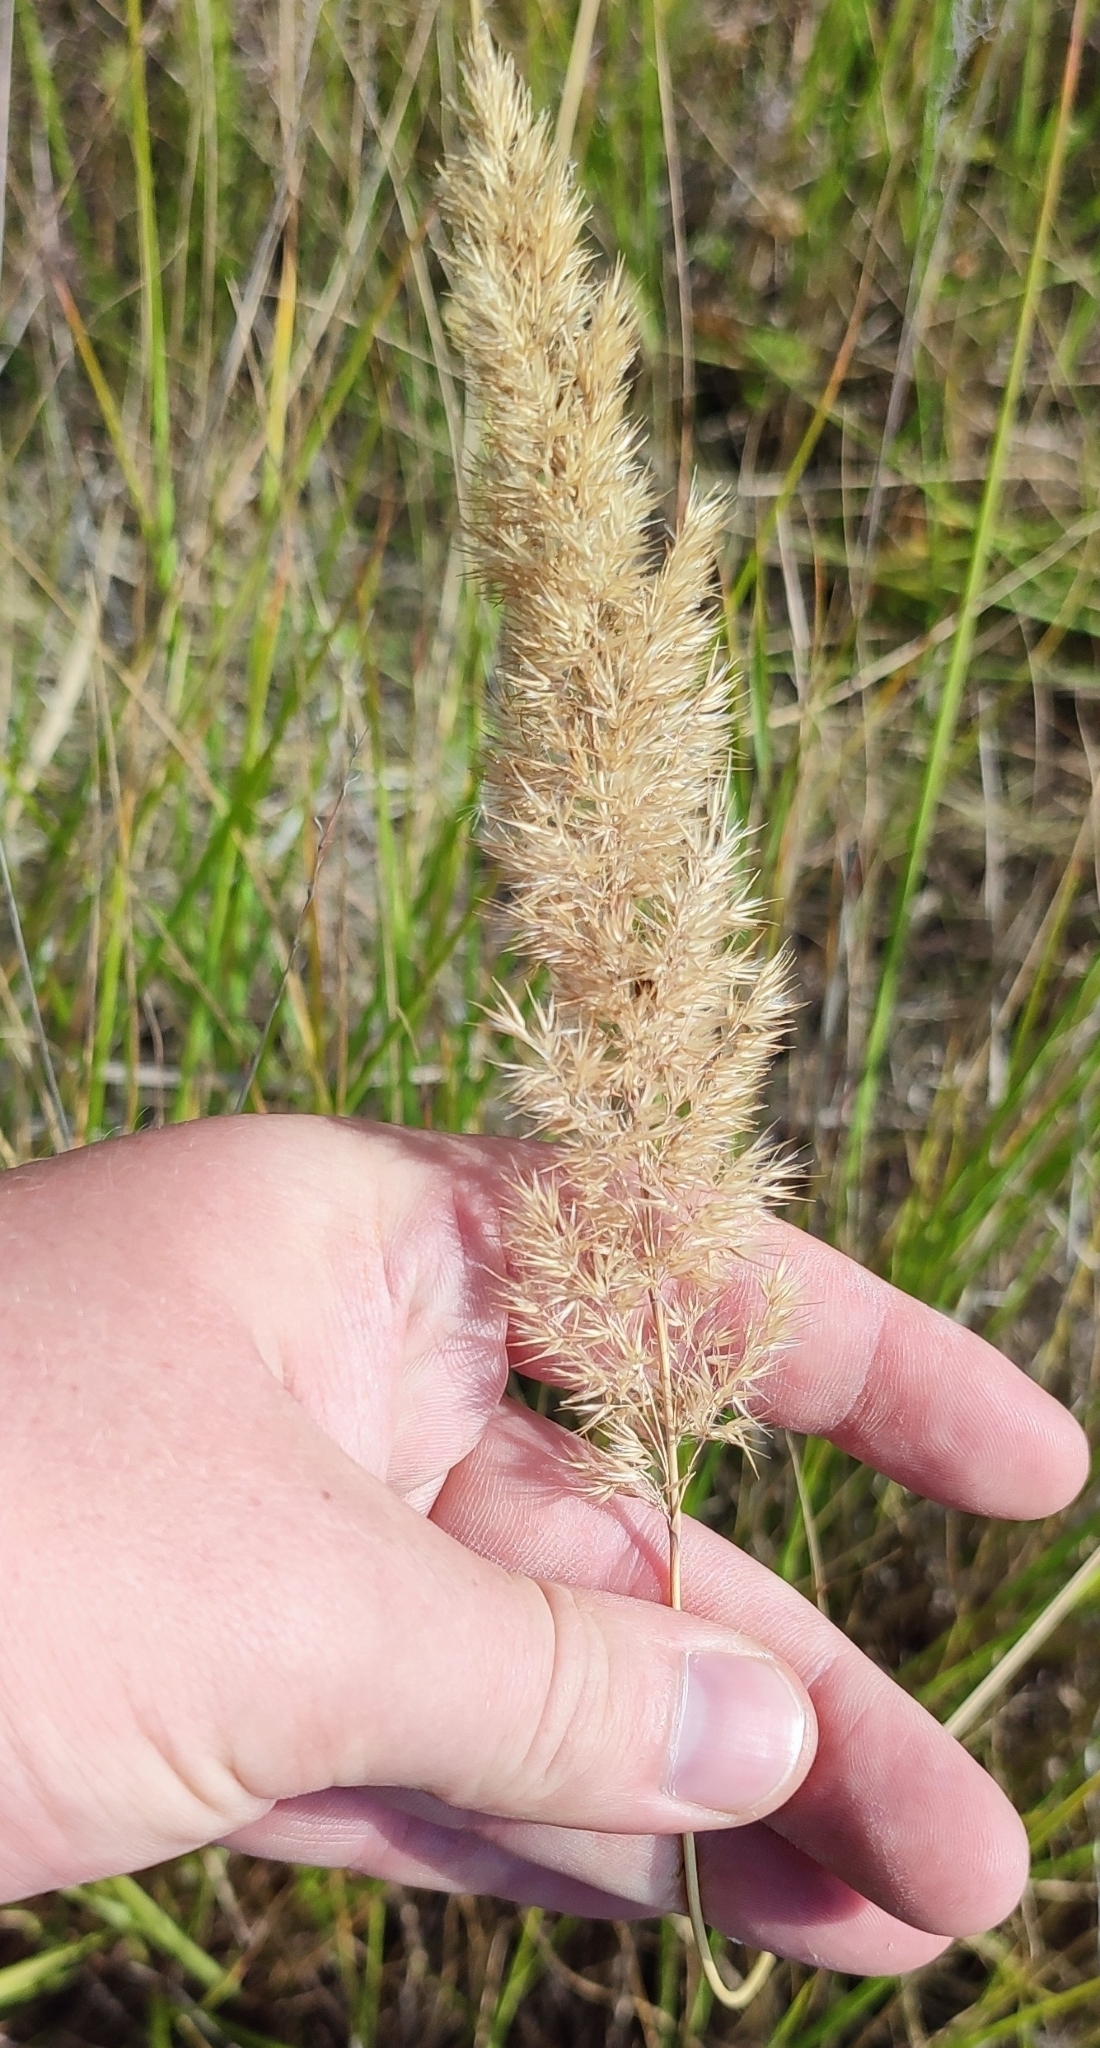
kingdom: Plantae
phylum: Tracheophyta
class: Liliopsida
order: Poales
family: Poaceae
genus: Calamagrostis
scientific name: Calamagrostis epigejos
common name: Wood small-reed
